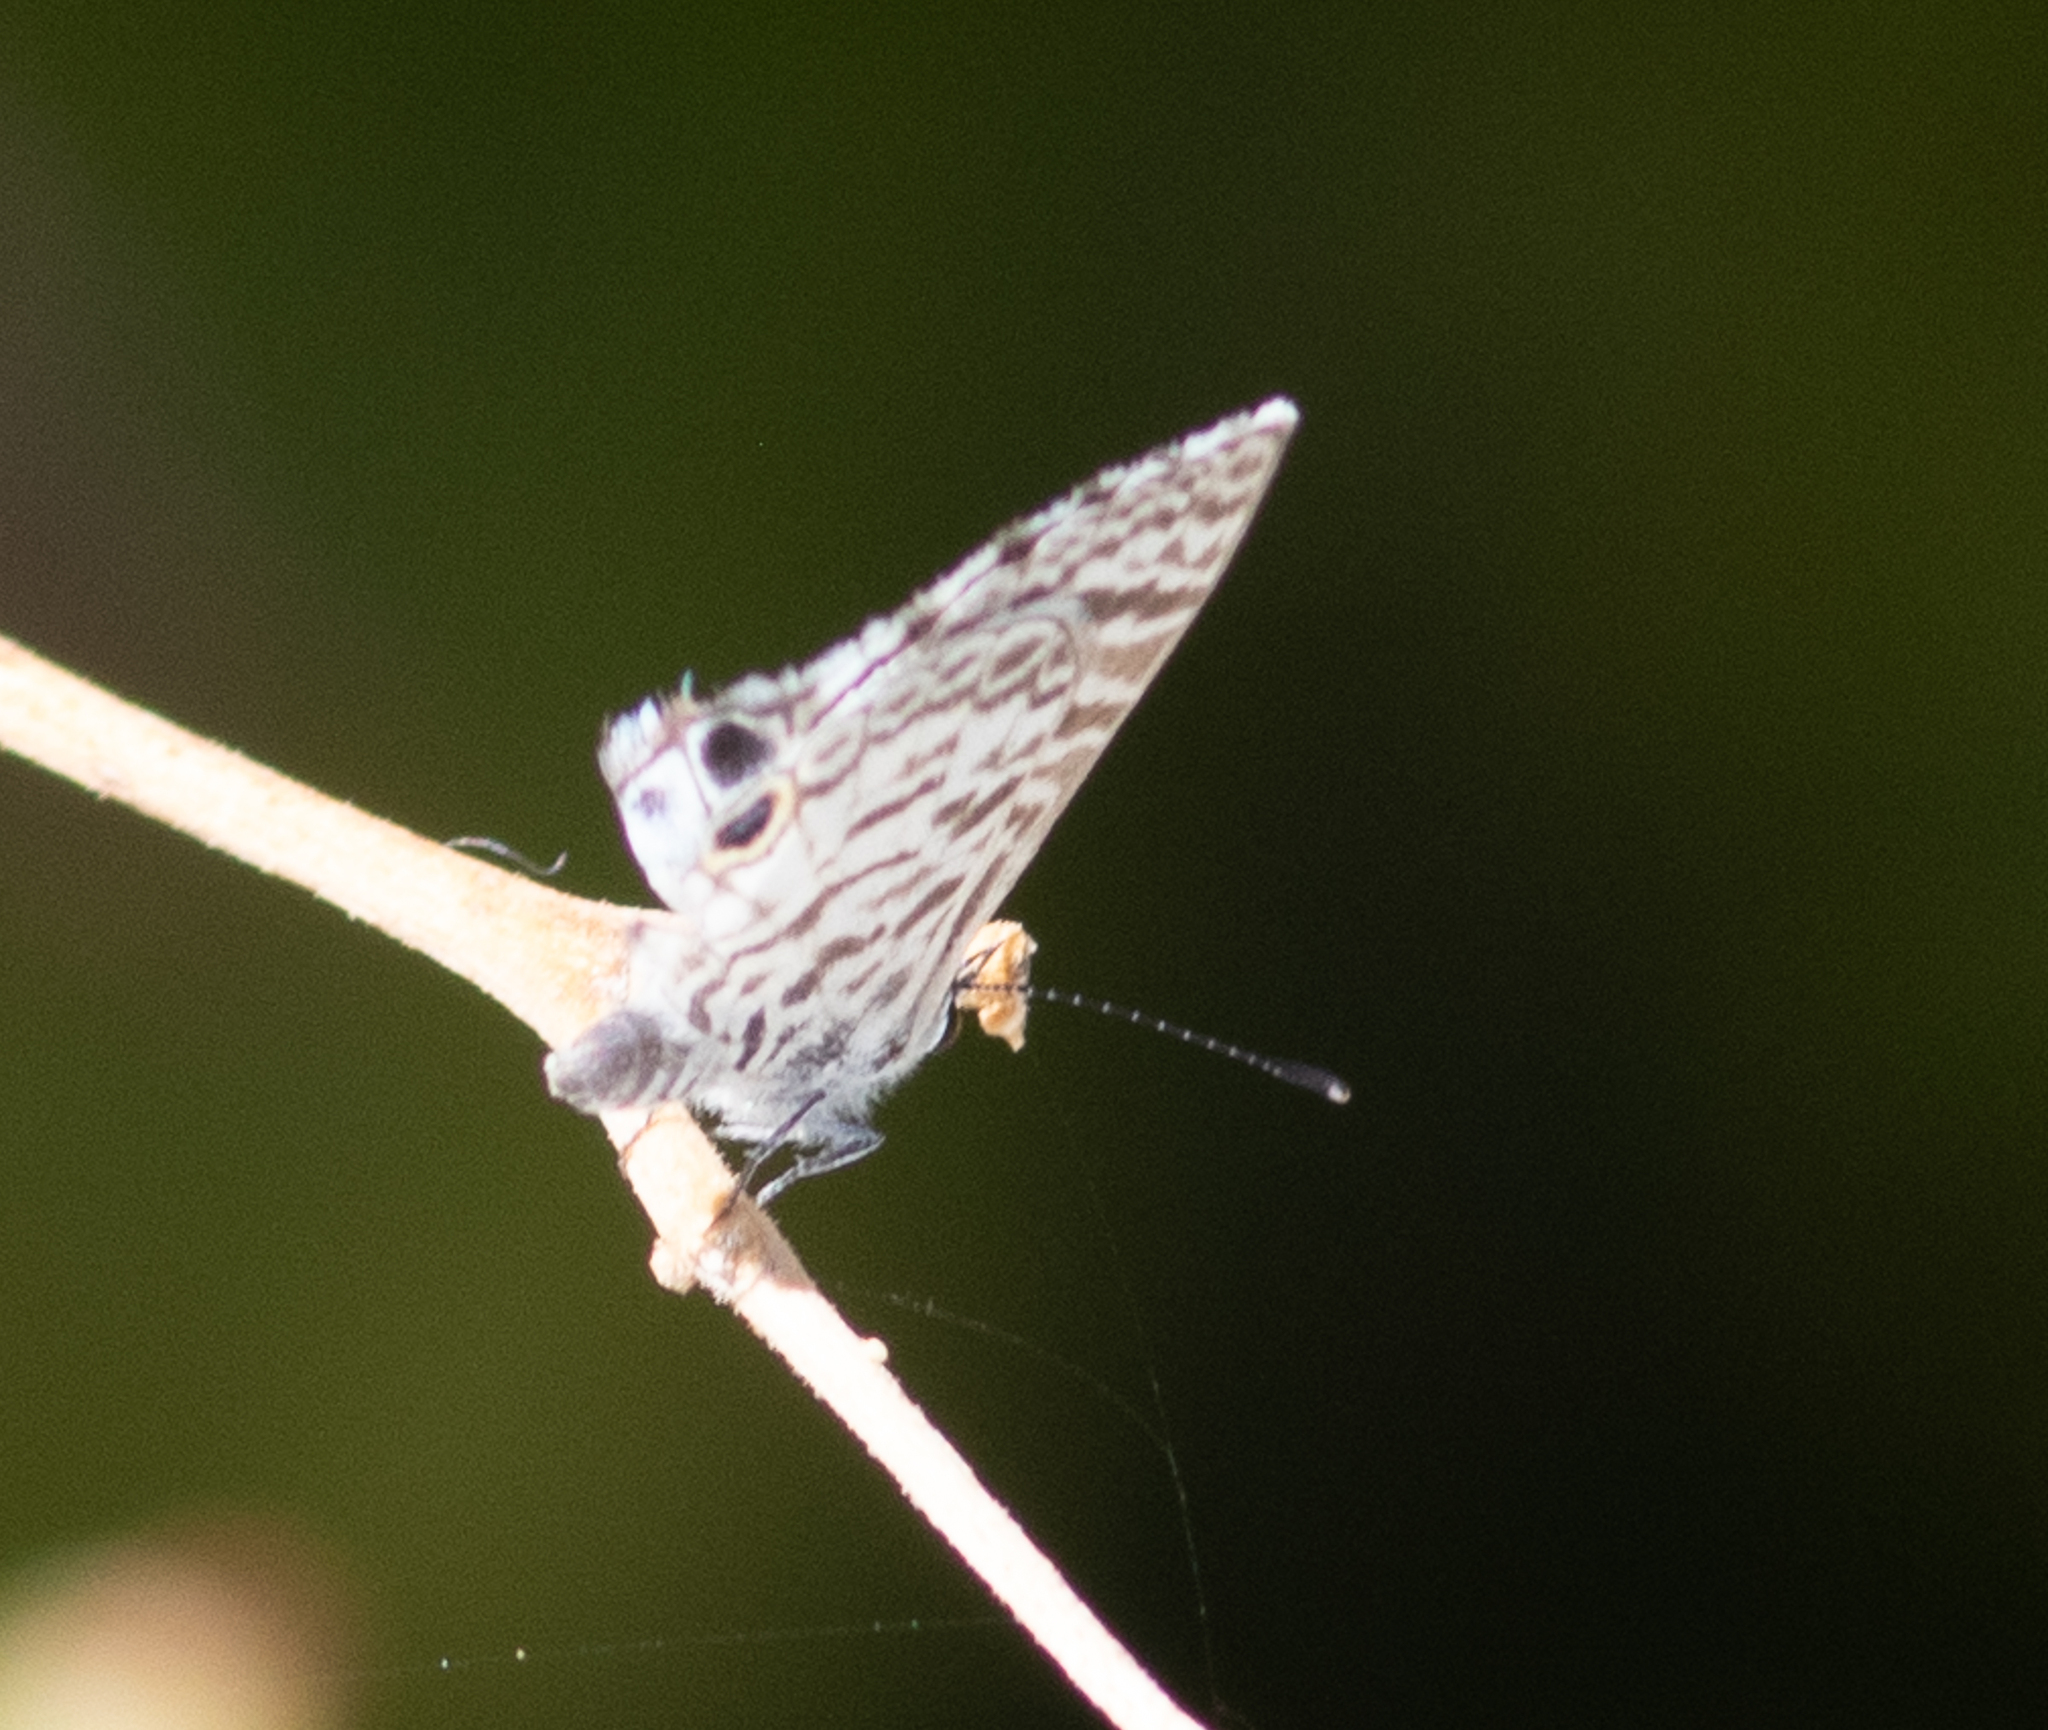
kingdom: Animalia
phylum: Arthropoda
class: Insecta
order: Lepidoptera
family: Lycaenidae
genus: Leptotes
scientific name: Leptotes cassius
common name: Cassius blue
